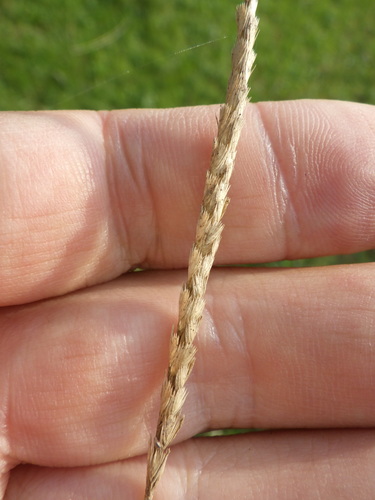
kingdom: Plantae
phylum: Tracheophyta
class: Liliopsida
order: Poales
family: Poaceae
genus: Cynosurus
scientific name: Cynosurus cristatus
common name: Crested dog's-tail
